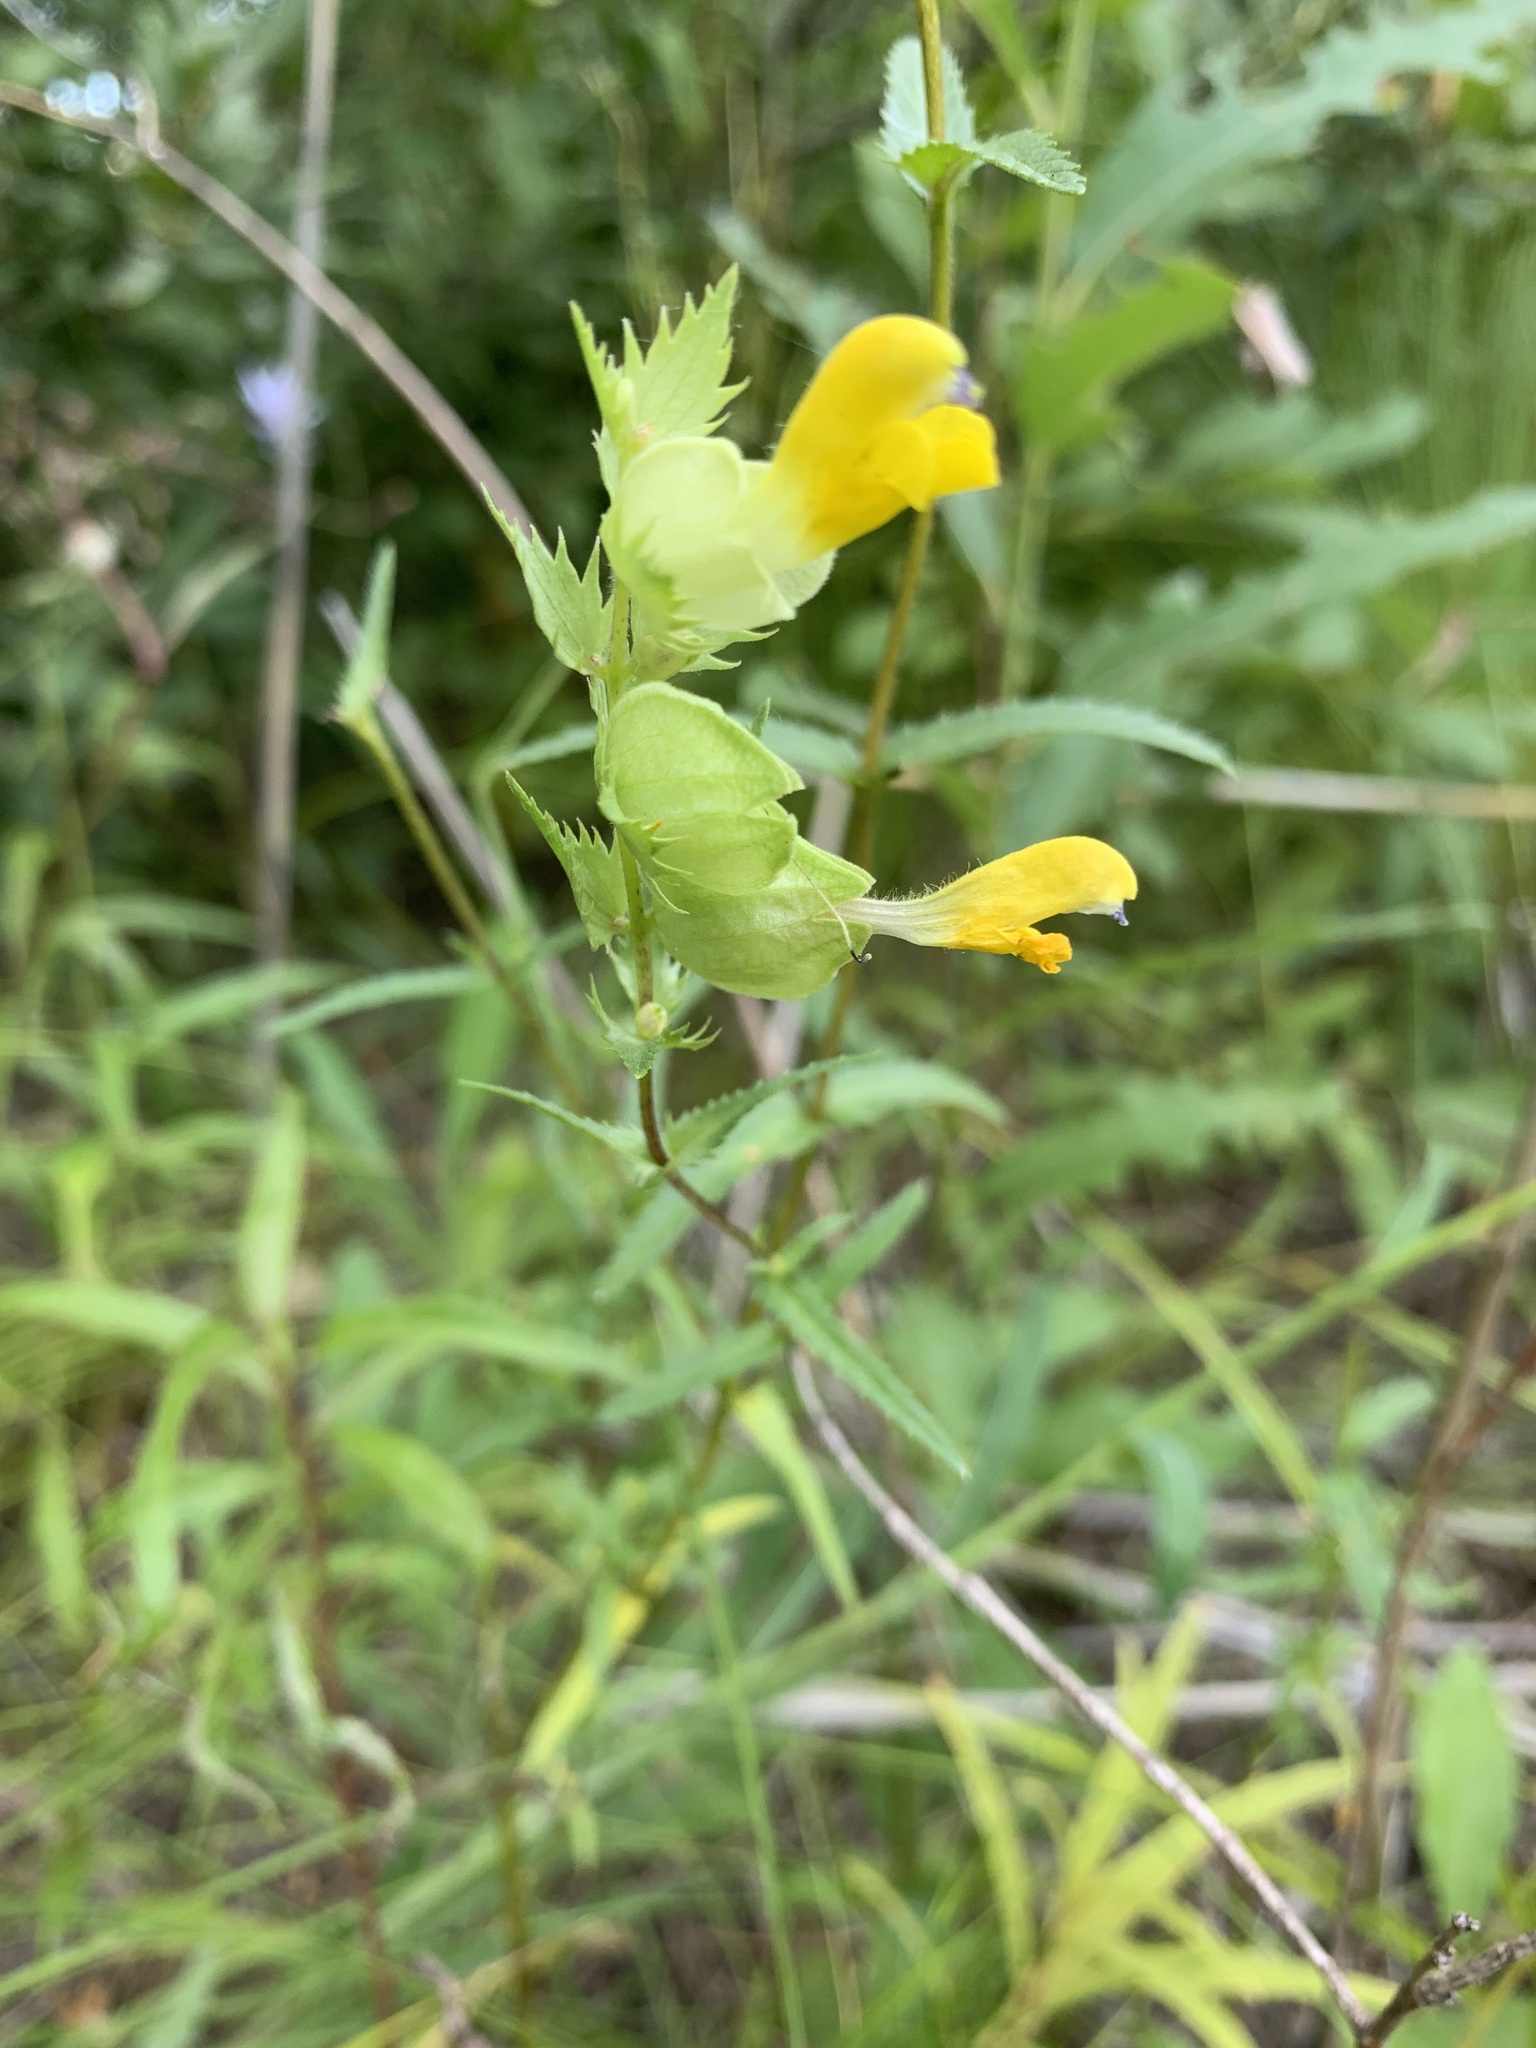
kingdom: Plantae
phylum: Tracheophyta
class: Magnoliopsida
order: Lamiales
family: Orobanchaceae
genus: Rhinanthus
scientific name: Rhinanthus serotinus
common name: Late-flowering yellow rattle
